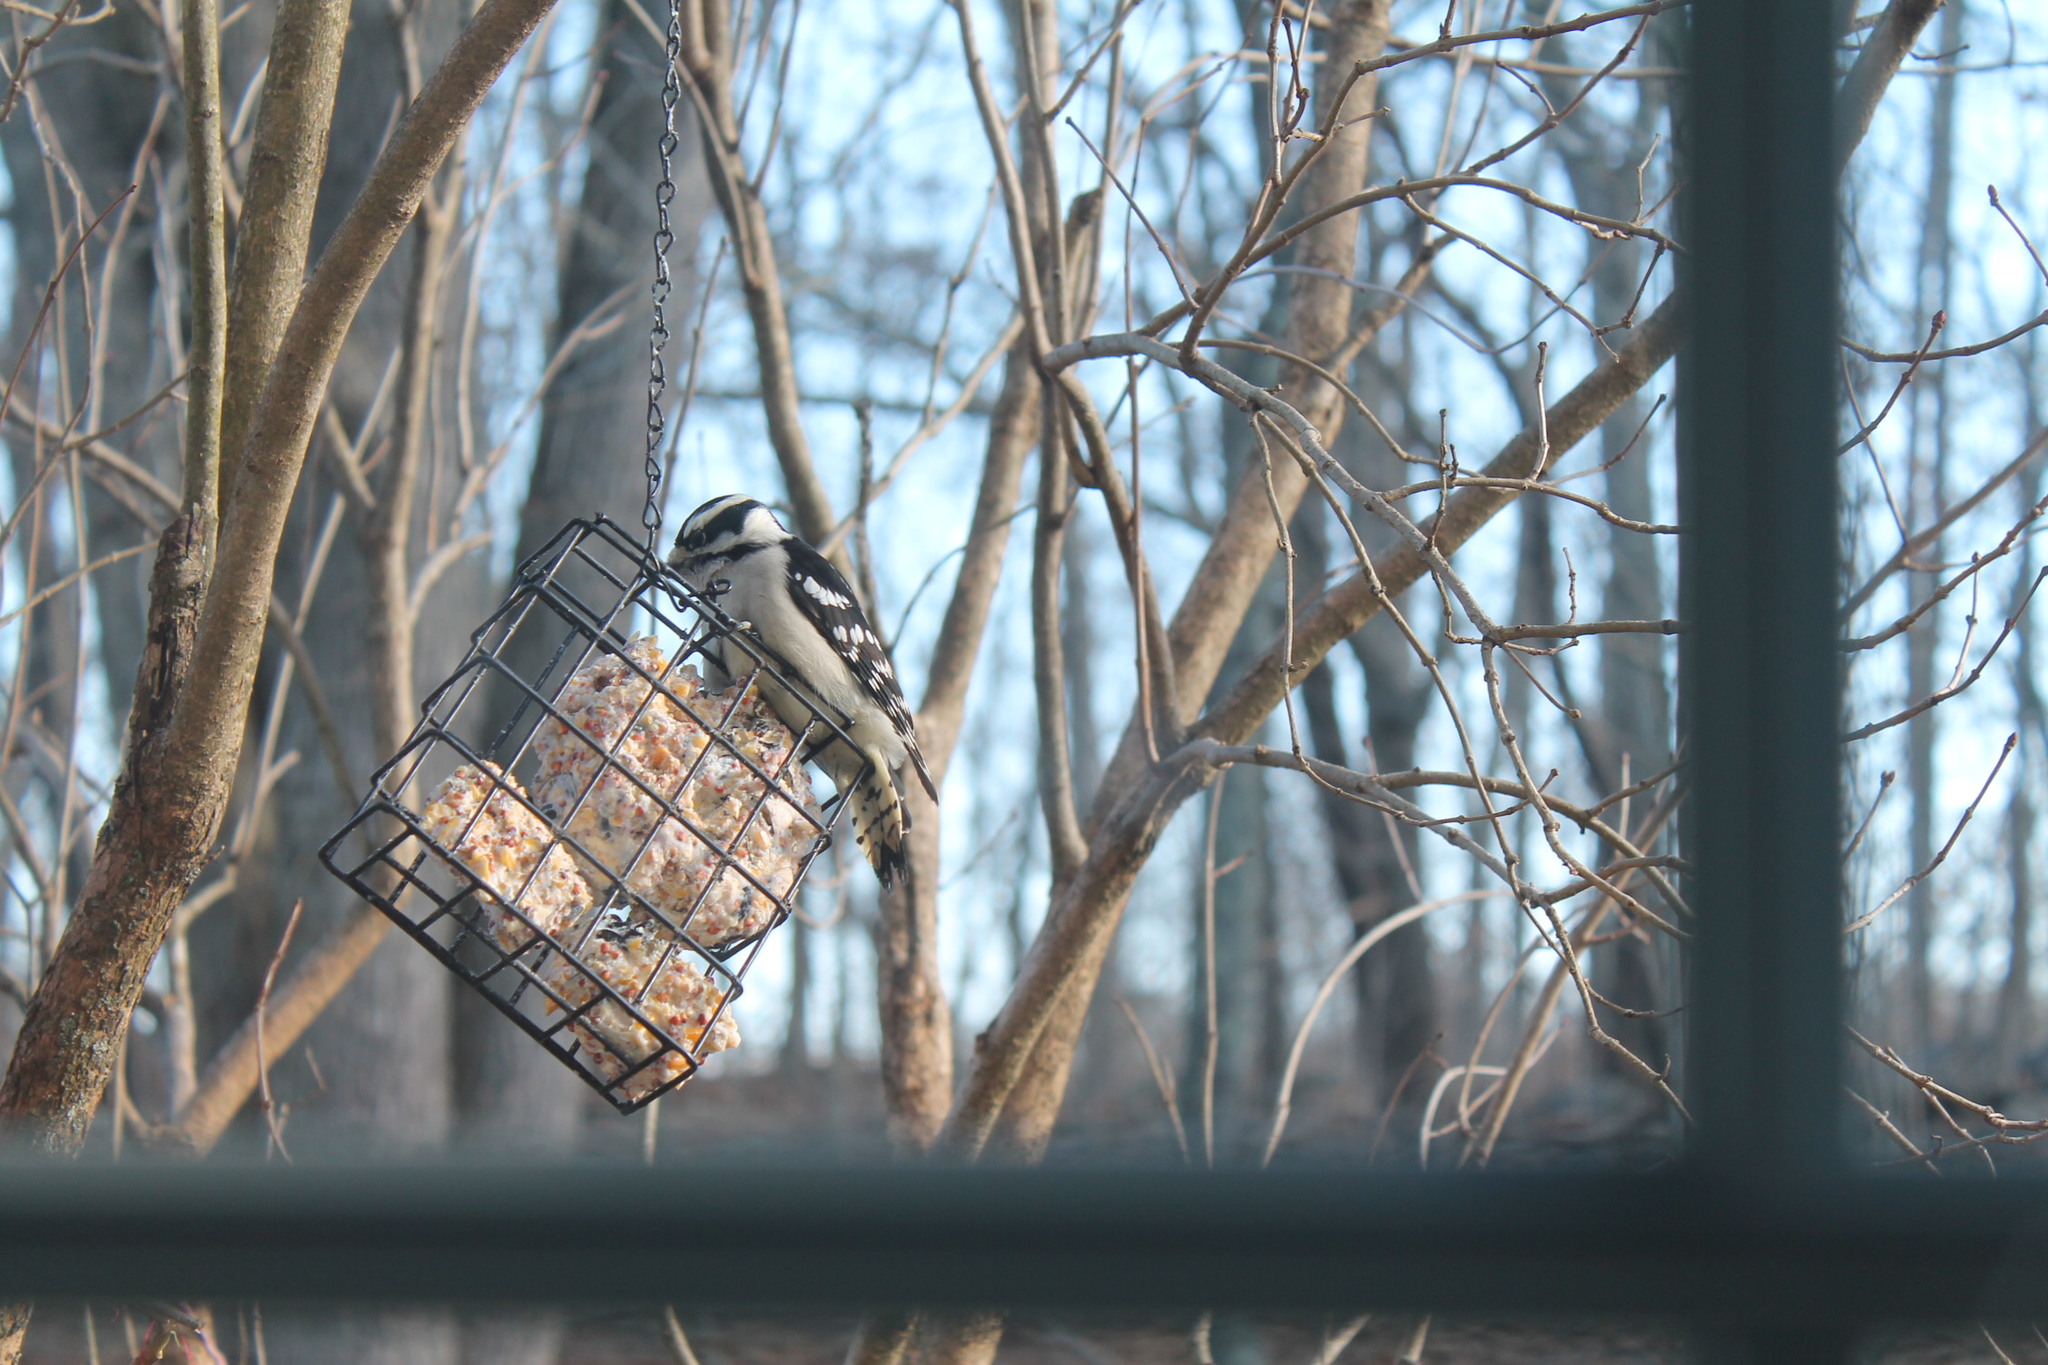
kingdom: Animalia
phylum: Chordata
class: Aves
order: Piciformes
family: Picidae
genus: Dryobates
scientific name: Dryobates pubescens
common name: Downy woodpecker
